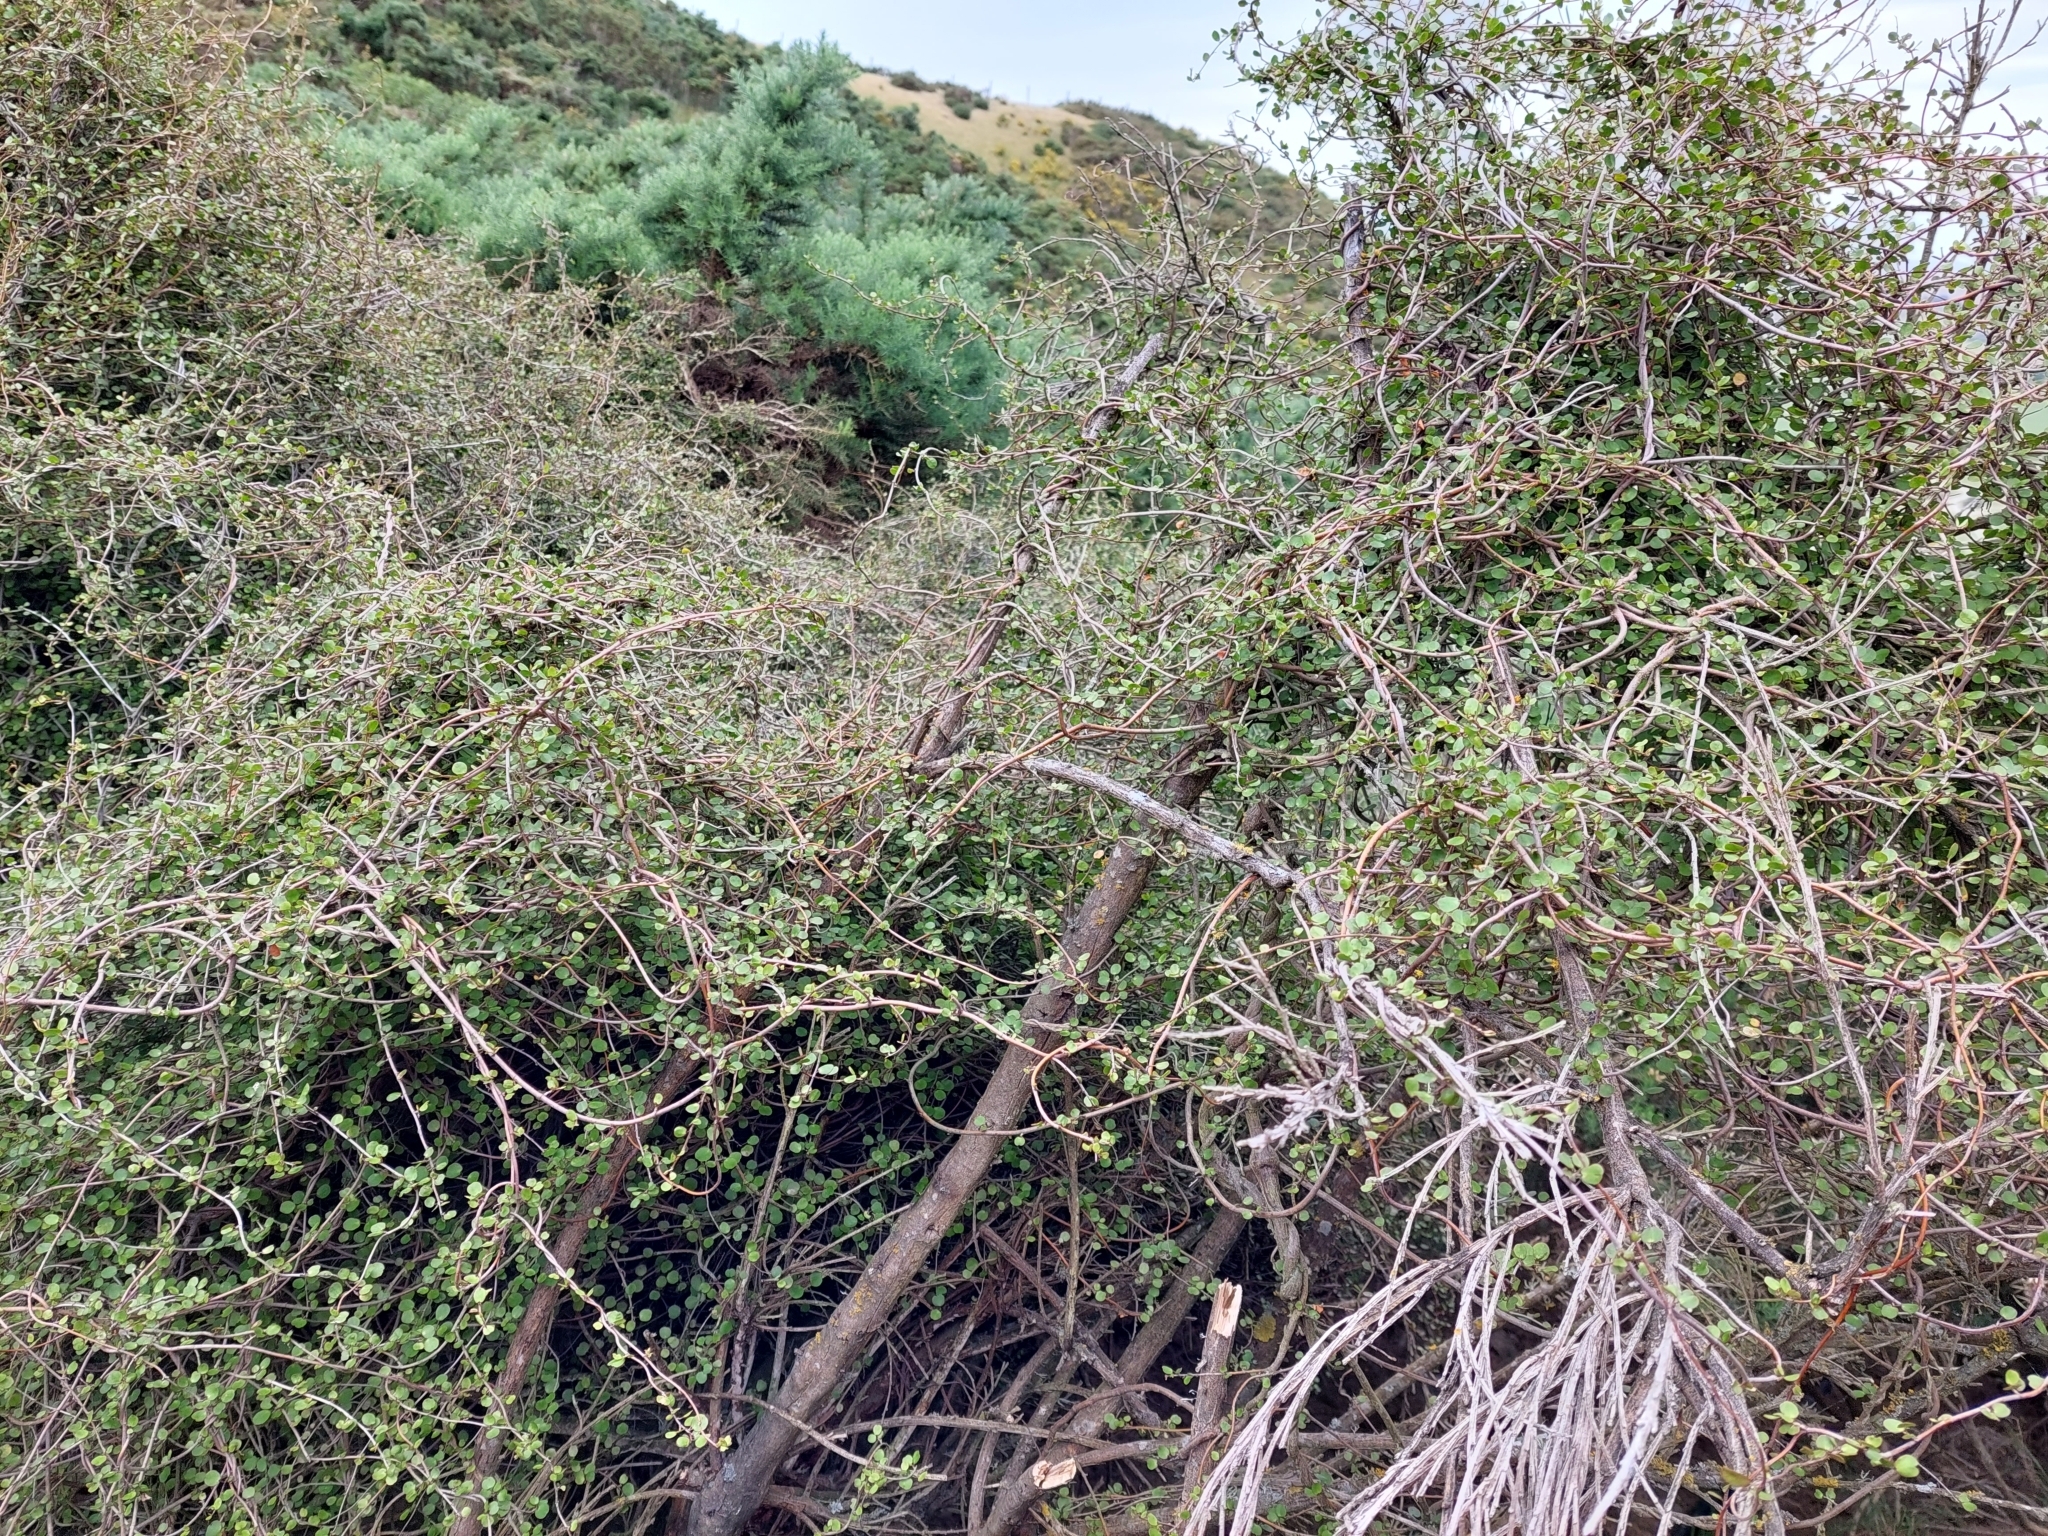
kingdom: Plantae
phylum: Tracheophyta
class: Magnoliopsida
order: Caryophyllales
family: Polygonaceae
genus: Muehlenbeckia
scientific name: Muehlenbeckia complexa
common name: Wireplant
